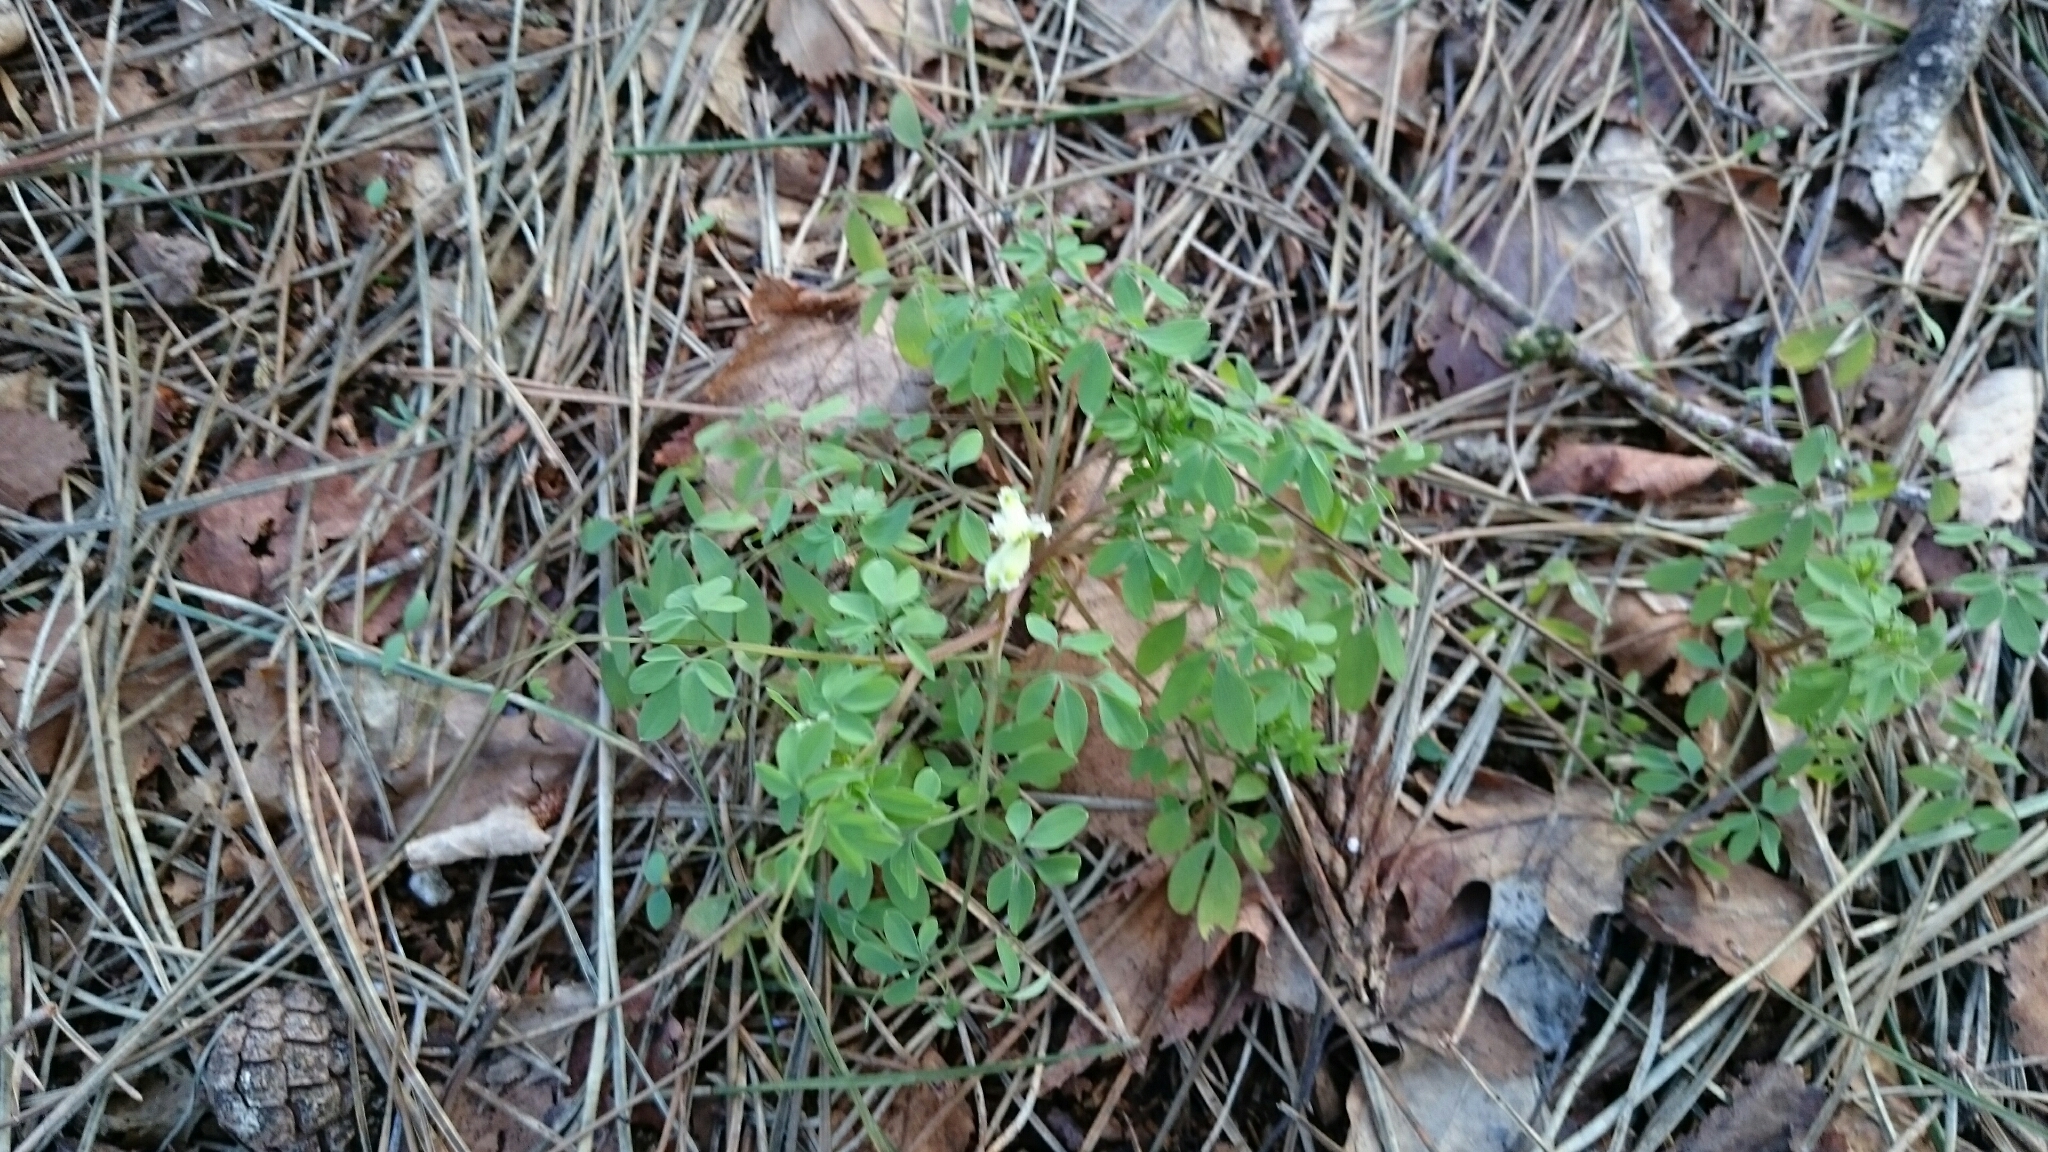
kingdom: Plantae
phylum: Tracheophyta
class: Magnoliopsida
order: Ranunculales
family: Papaveraceae
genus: Ceratocapnos
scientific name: Ceratocapnos claviculata
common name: Climbing corydalis
